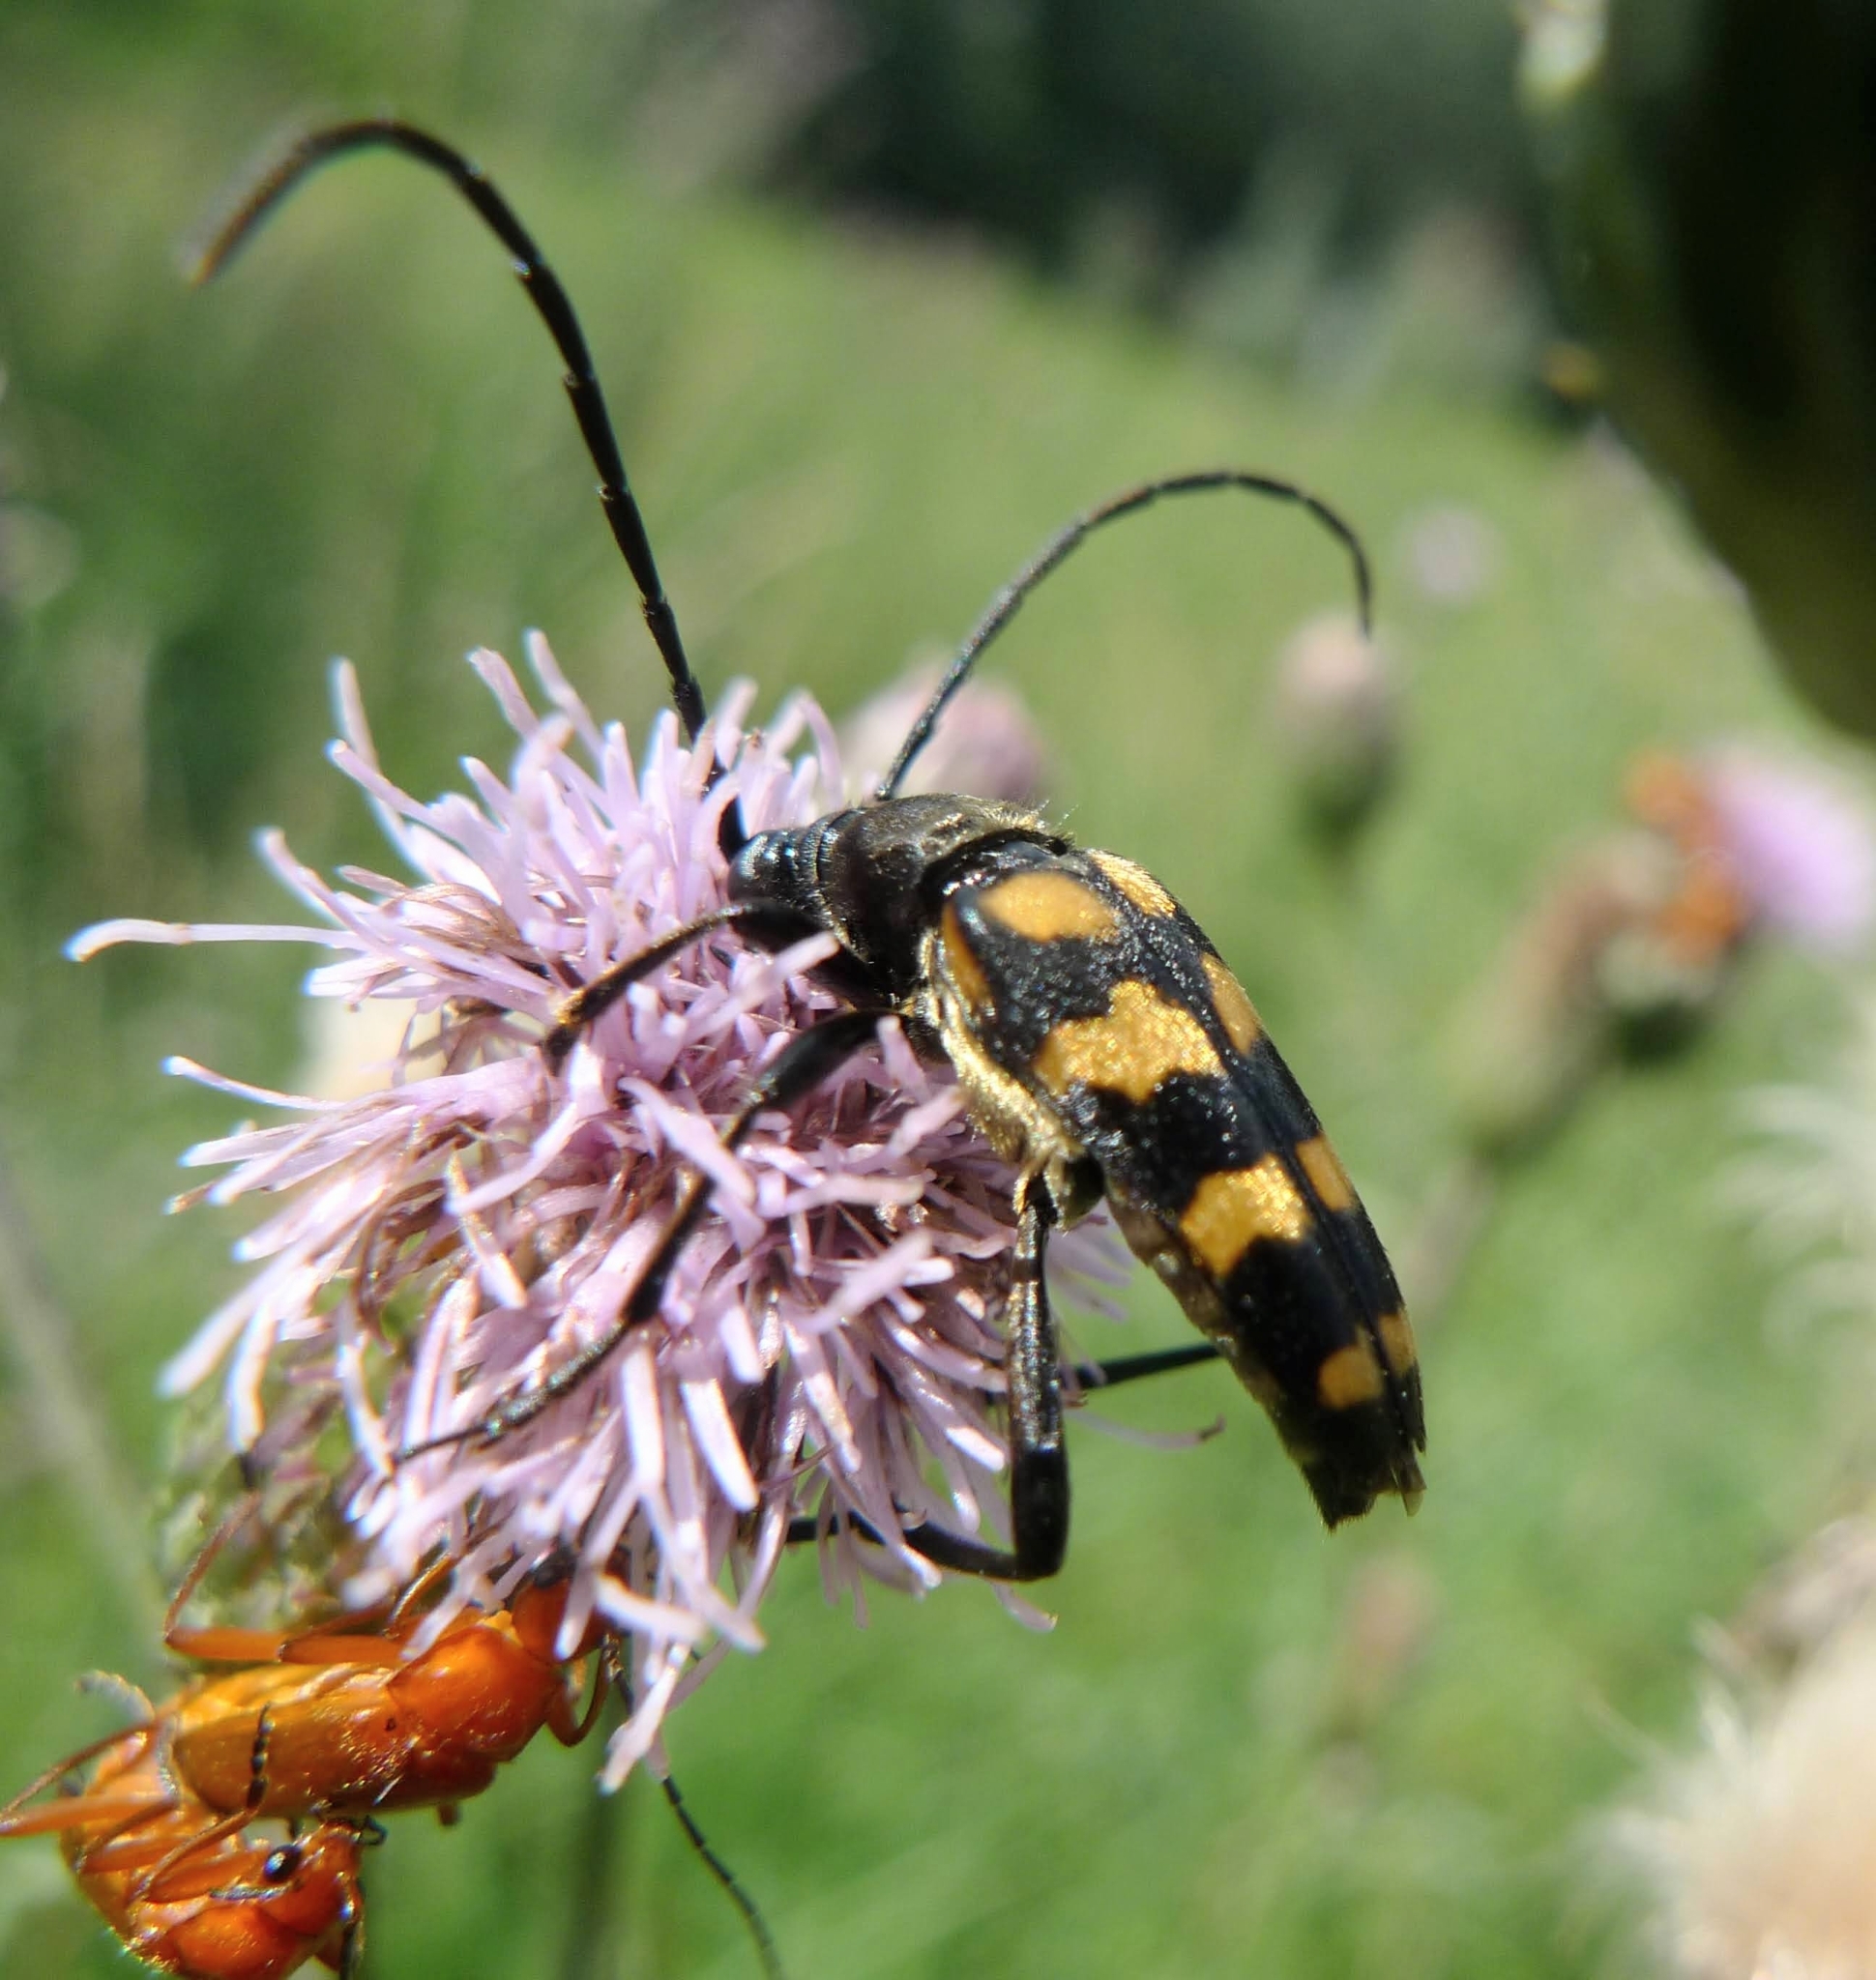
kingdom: Animalia
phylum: Arthropoda
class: Insecta
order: Coleoptera
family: Cerambycidae
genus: Leptura
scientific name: Leptura quadrifasciata
